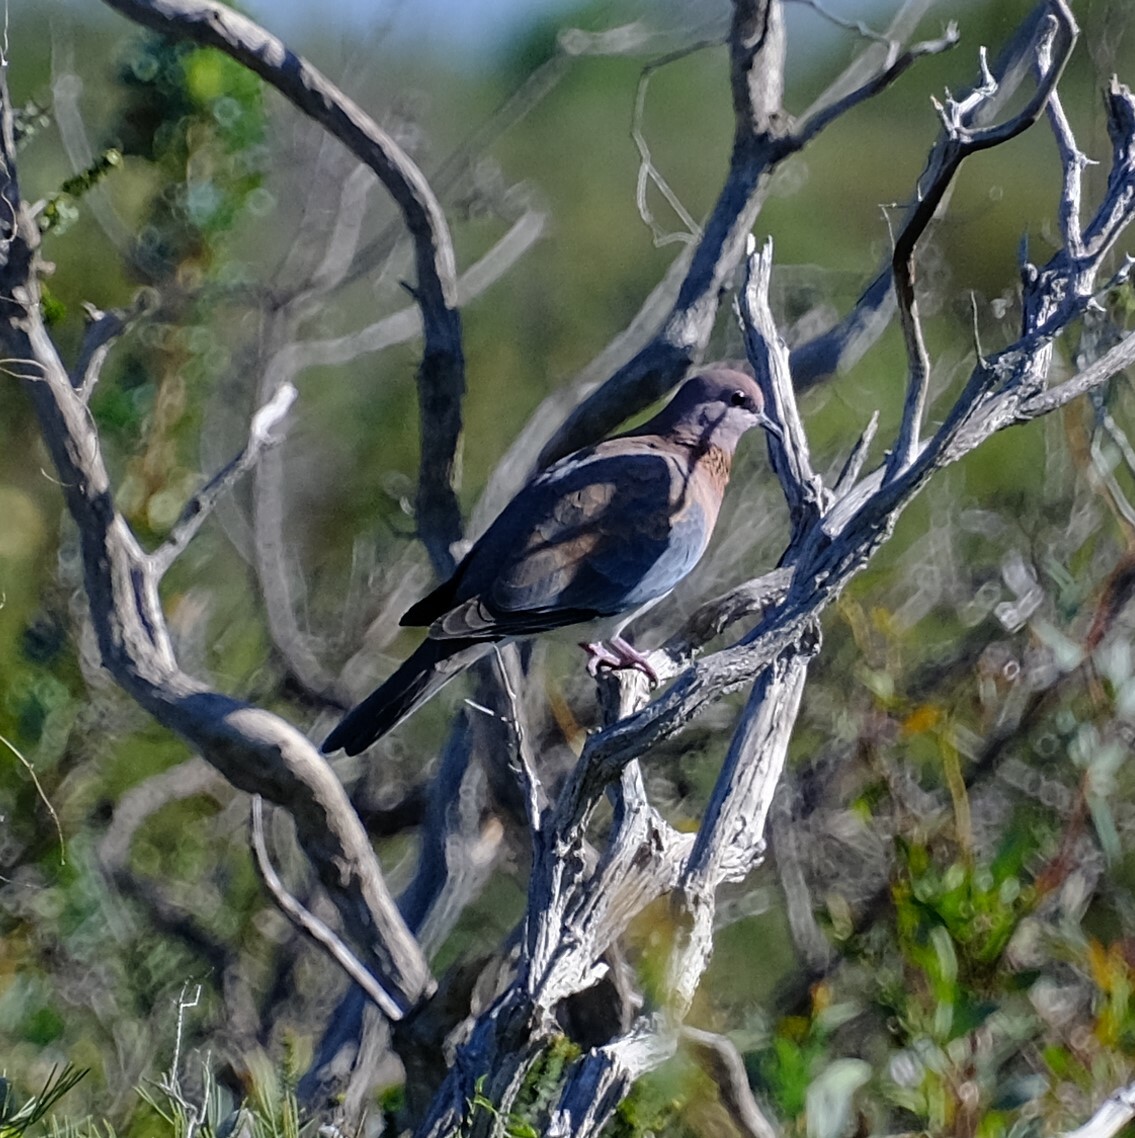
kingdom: Animalia
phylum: Chordata
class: Aves
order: Columbiformes
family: Columbidae
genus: Spilopelia
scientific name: Spilopelia senegalensis
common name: Laughing dove
